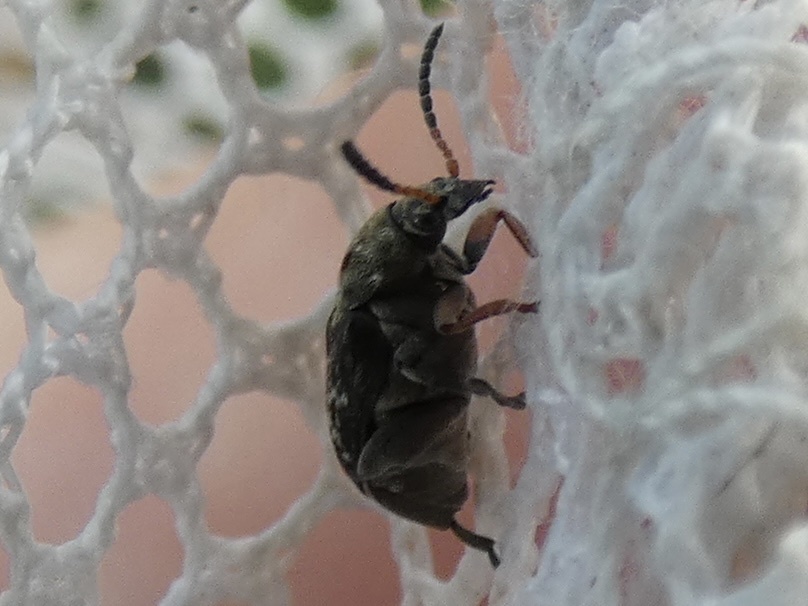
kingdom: Animalia
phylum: Arthropoda
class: Insecta
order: Coleoptera
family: Chrysomelidae
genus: Bruchus
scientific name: Bruchus rufimanus
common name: Broadbean weevil
